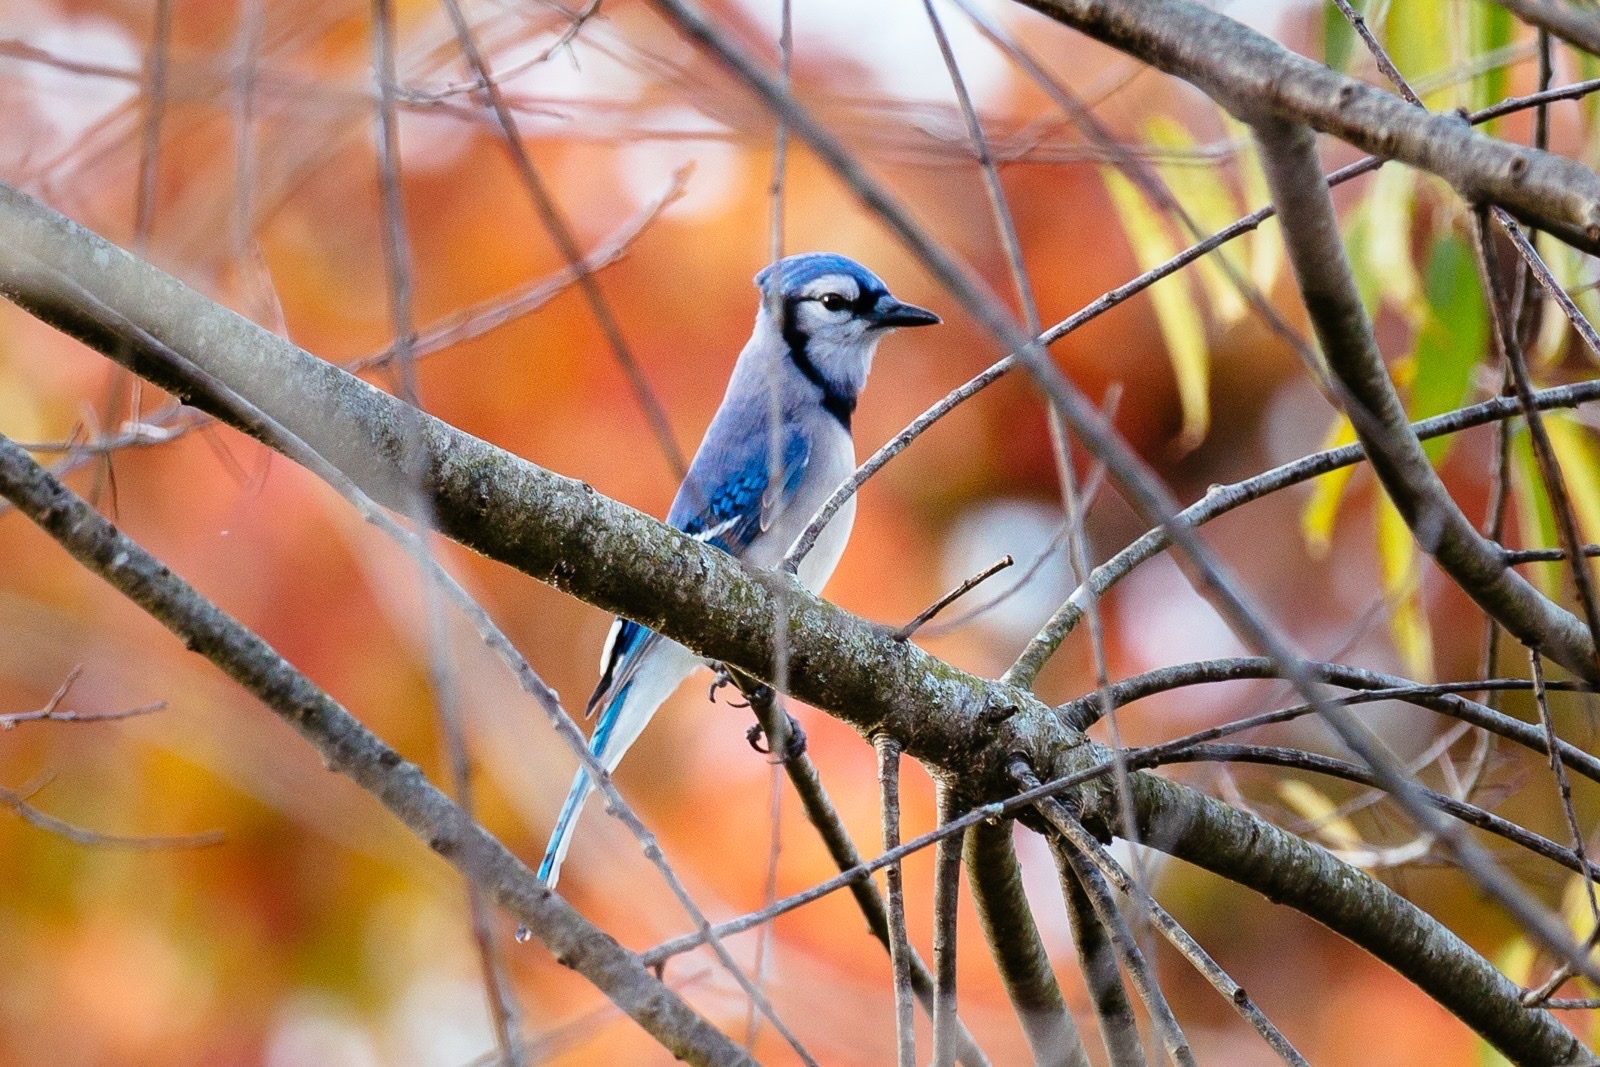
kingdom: Animalia
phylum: Chordata
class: Aves
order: Passeriformes
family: Corvidae
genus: Cyanocitta
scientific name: Cyanocitta cristata
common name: Blue jay
